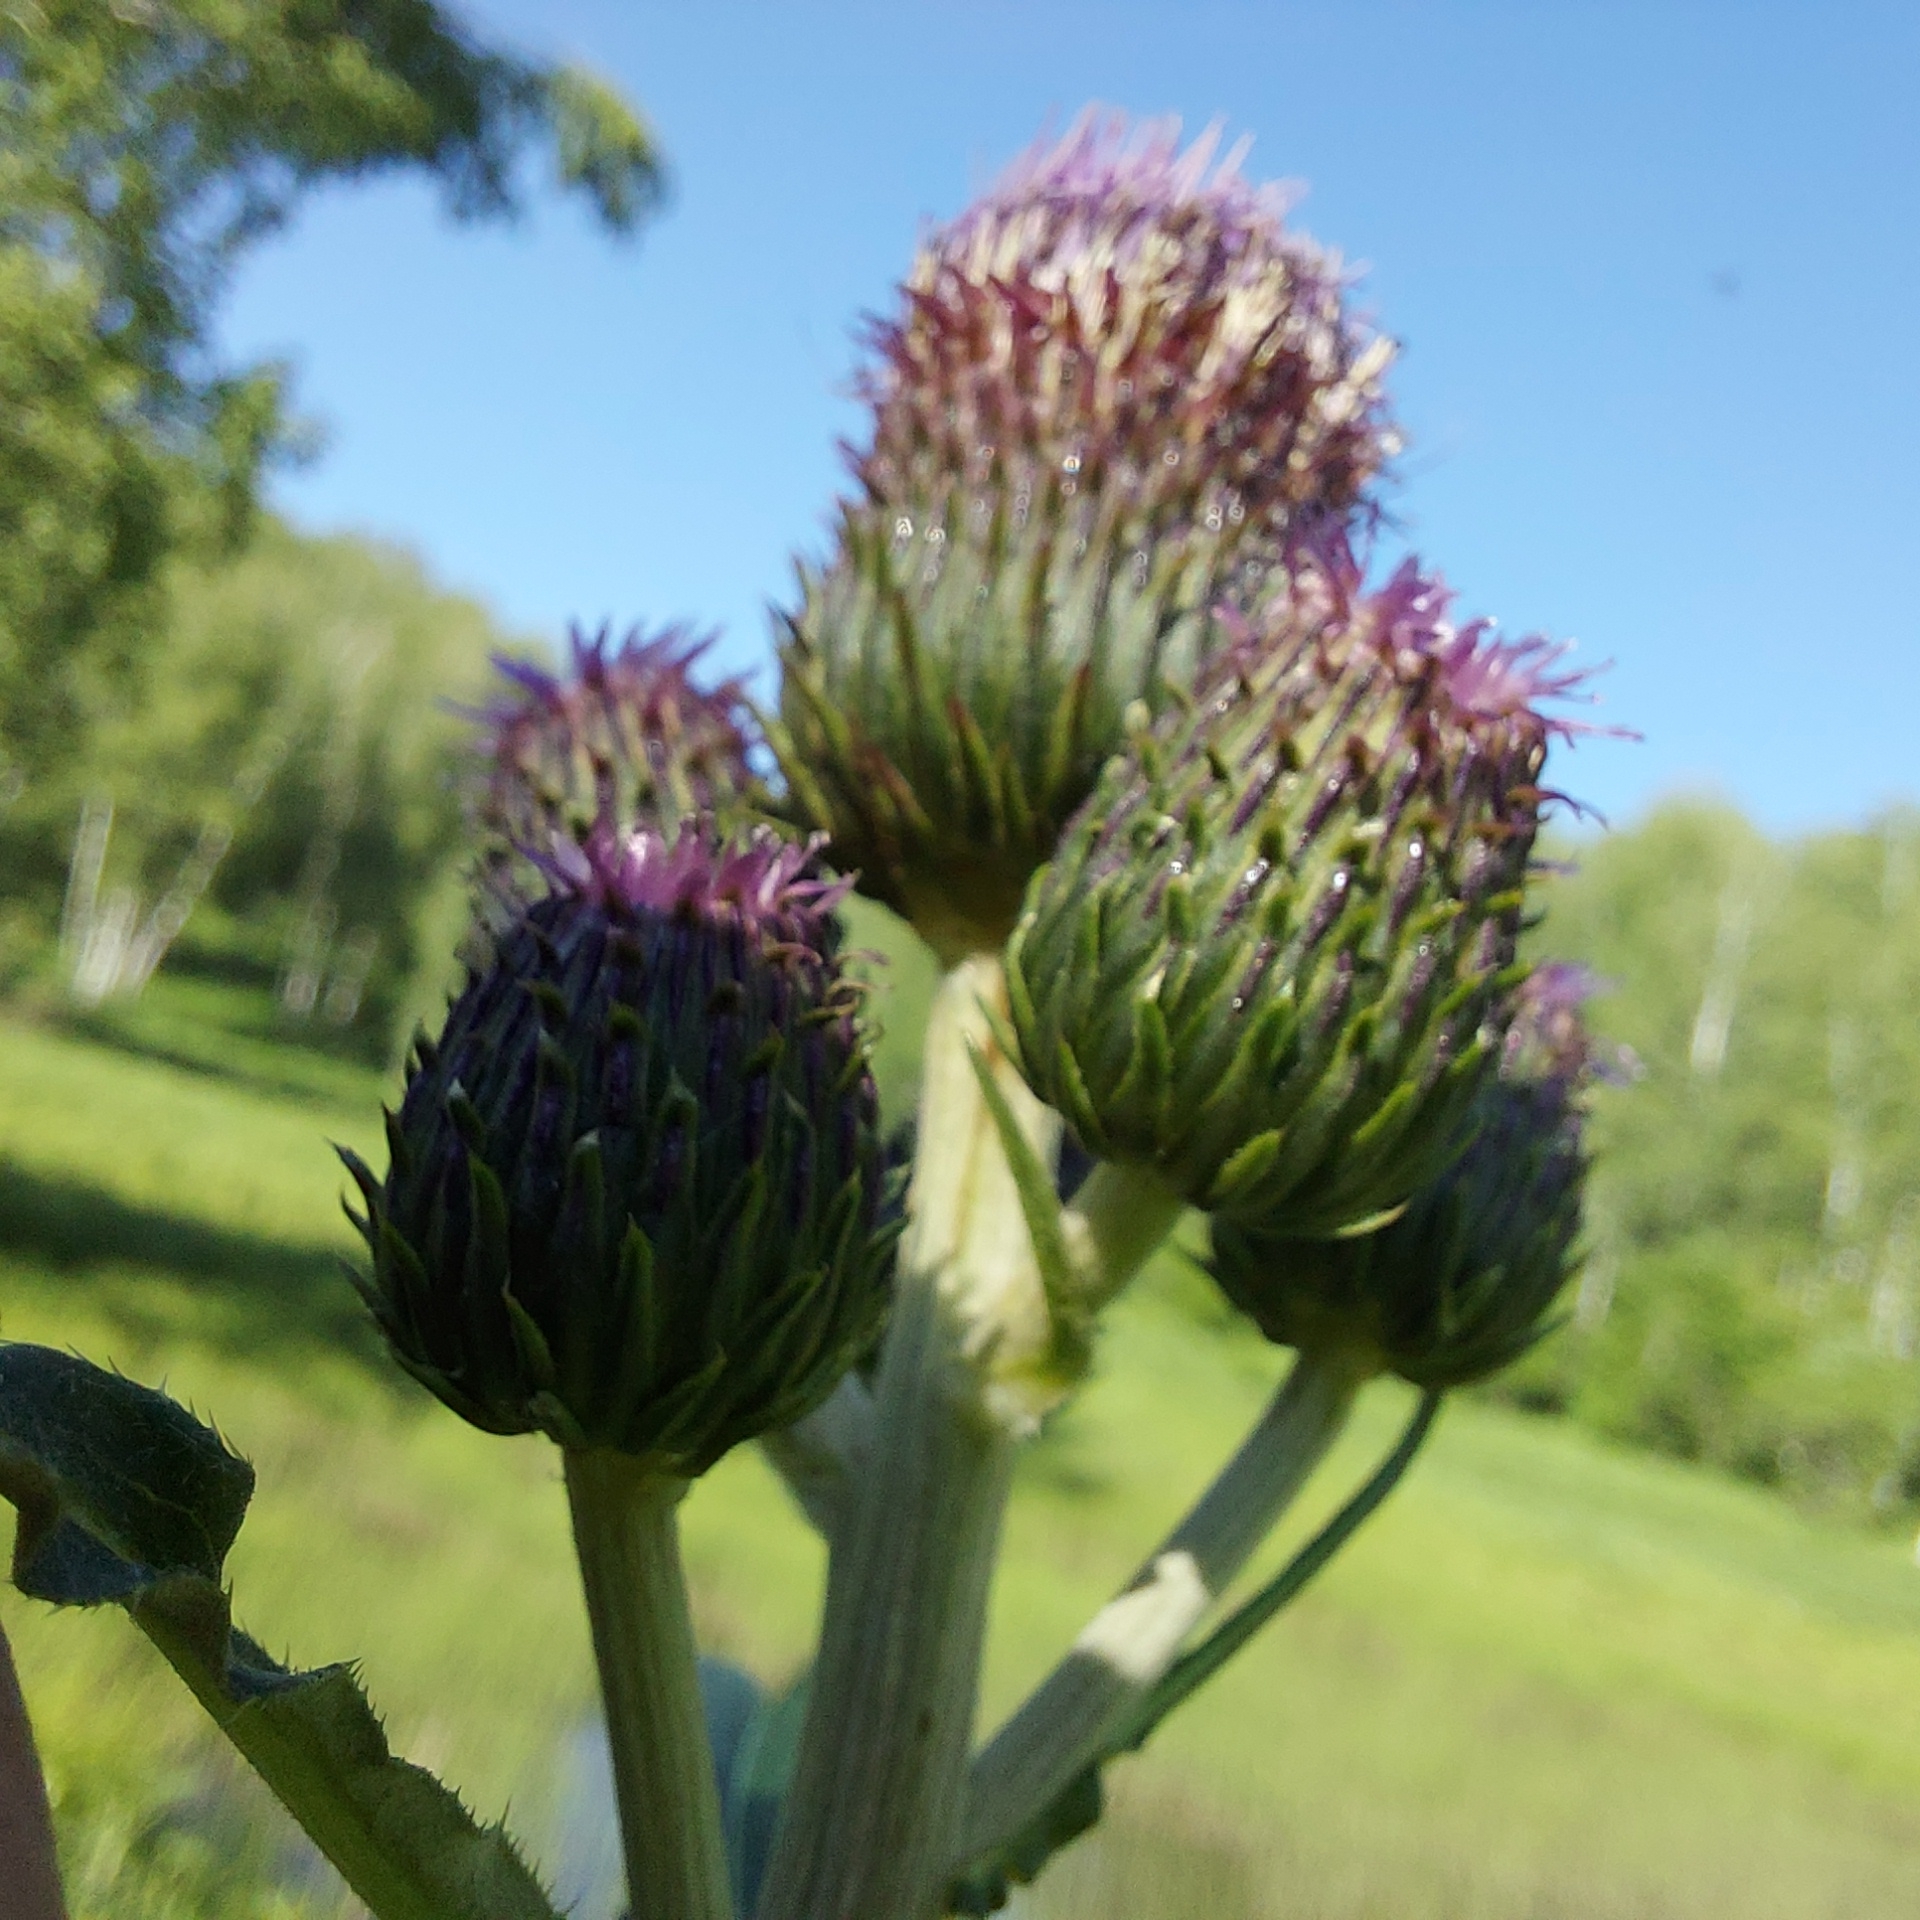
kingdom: Plantae
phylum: Tracheophyta
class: Magnoliopsida
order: Asterales
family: Asteraceae
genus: Cirsium
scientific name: Cirsium helenioides
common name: Melancholy thistle
